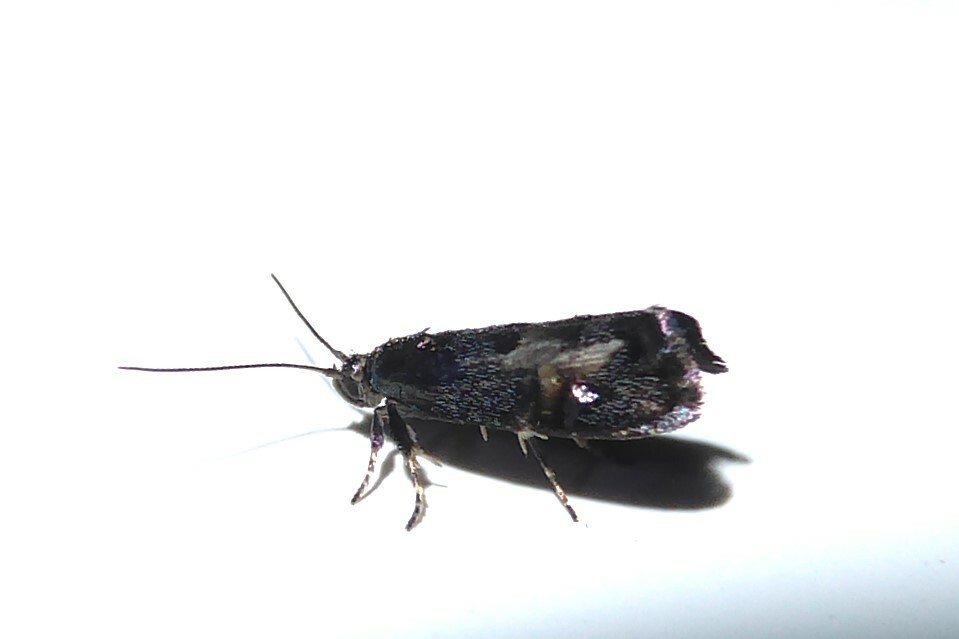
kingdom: Animalia
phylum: Arthropoda
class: Insecta
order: Lepidoptera
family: Oecophoridae
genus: Hierodoris
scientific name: Hierodoris torrida
